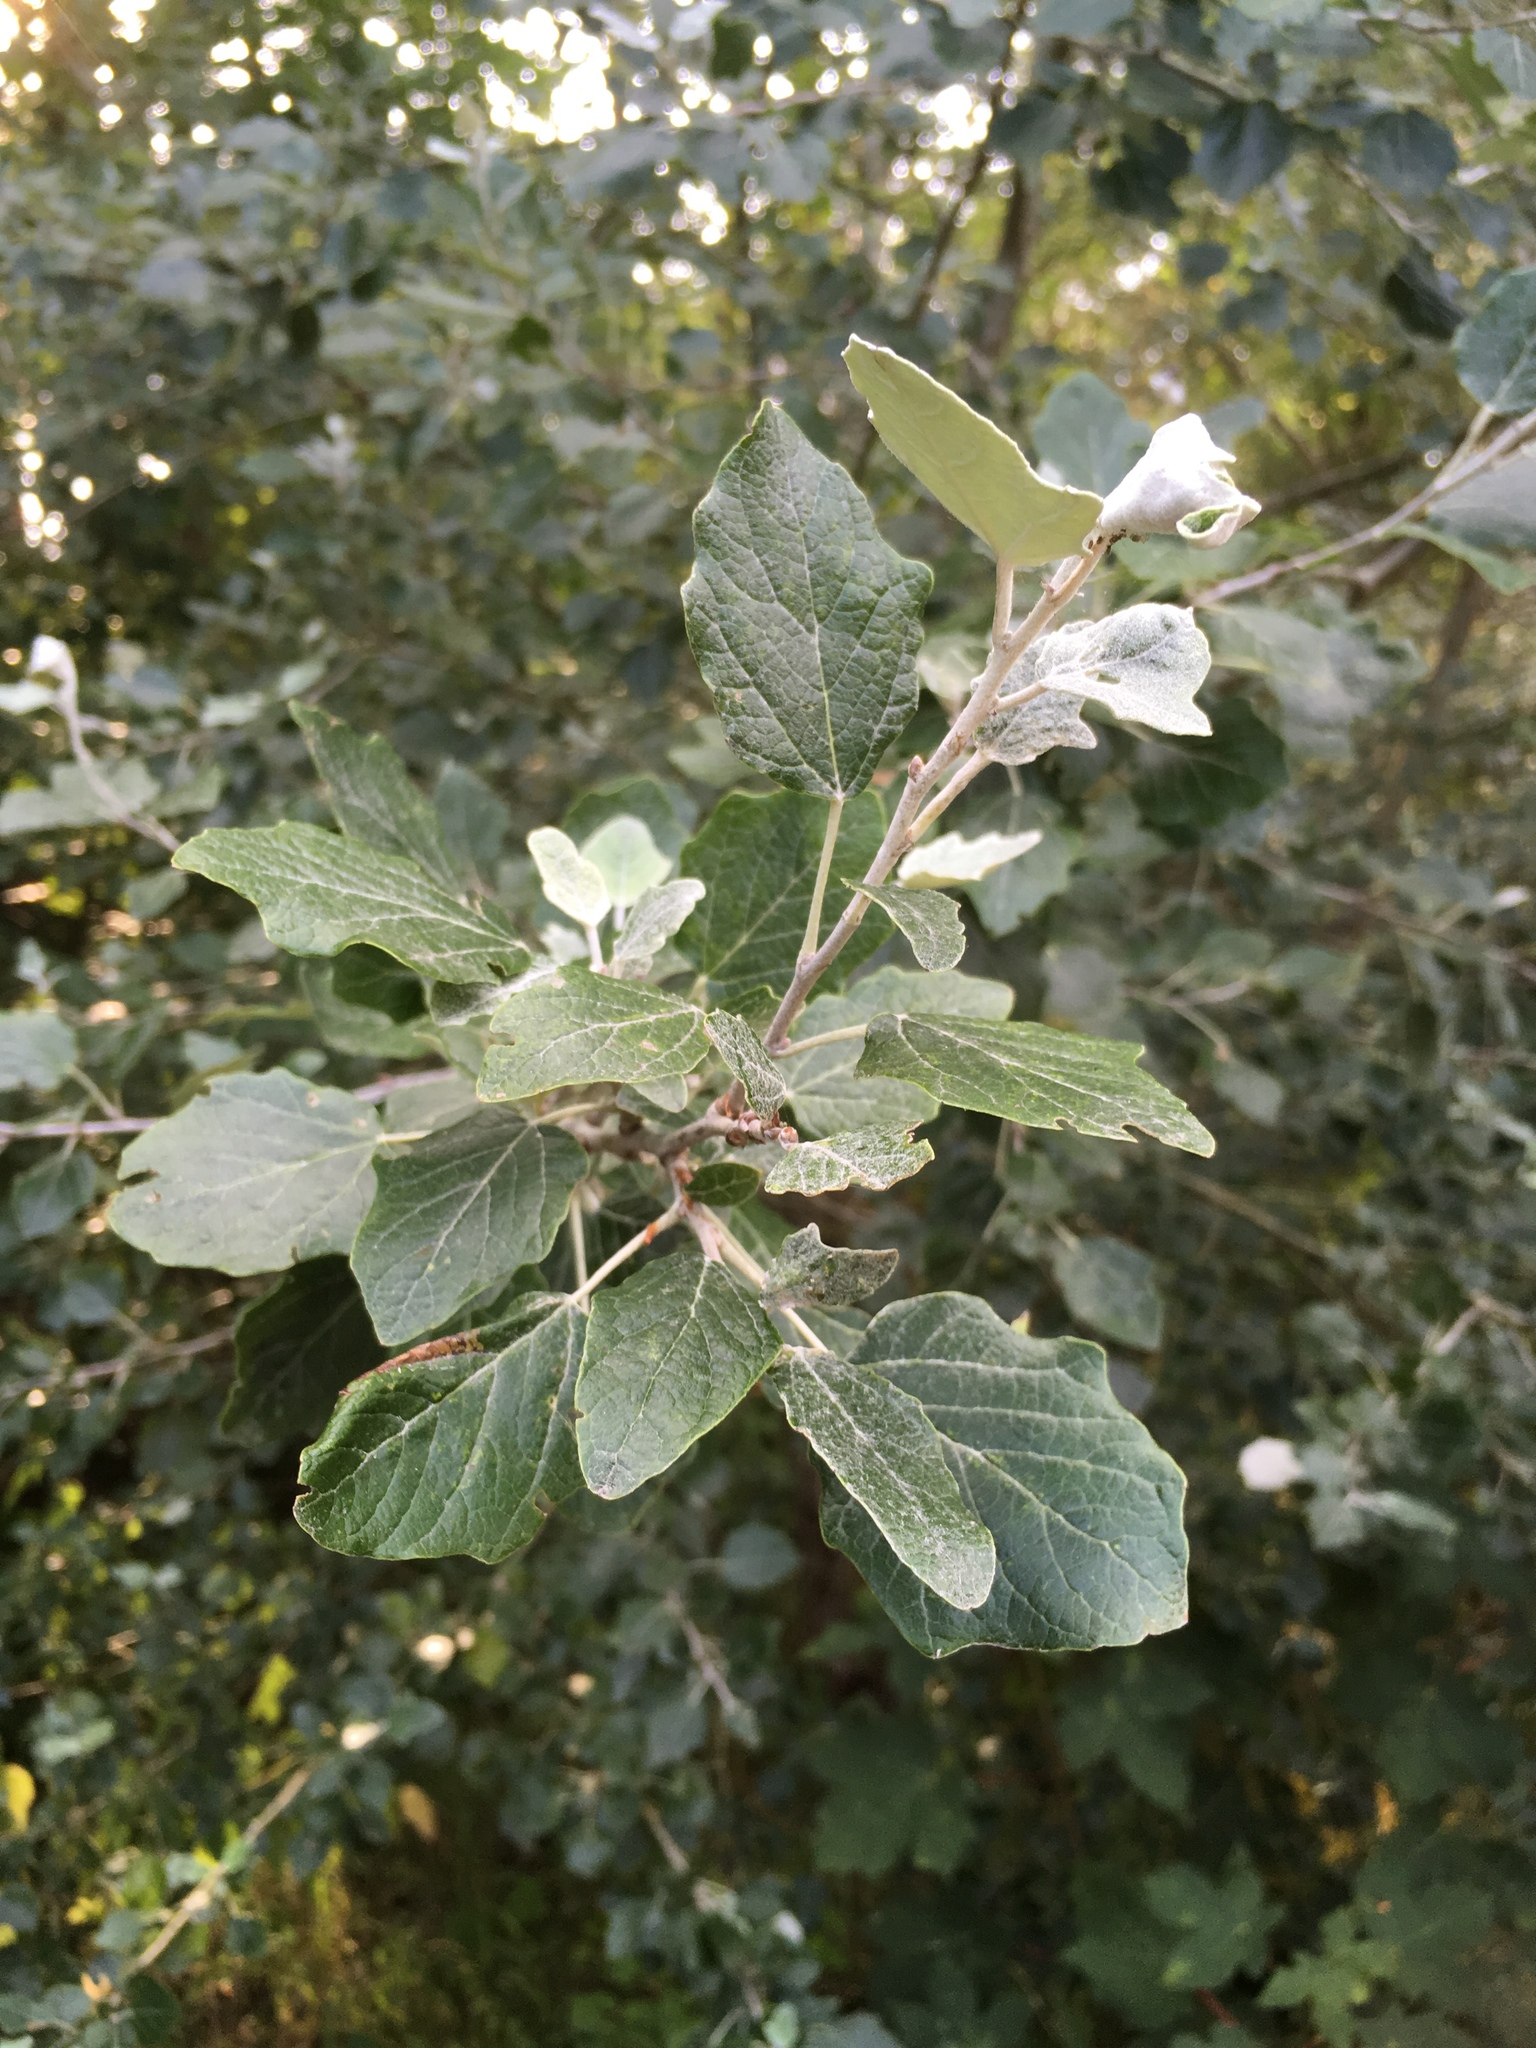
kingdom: Plantae
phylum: Tracheophyta
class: Magnoliopsida
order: Malpighiales
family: Salicaceae
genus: Populus
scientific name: Populus alba
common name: White poplar
